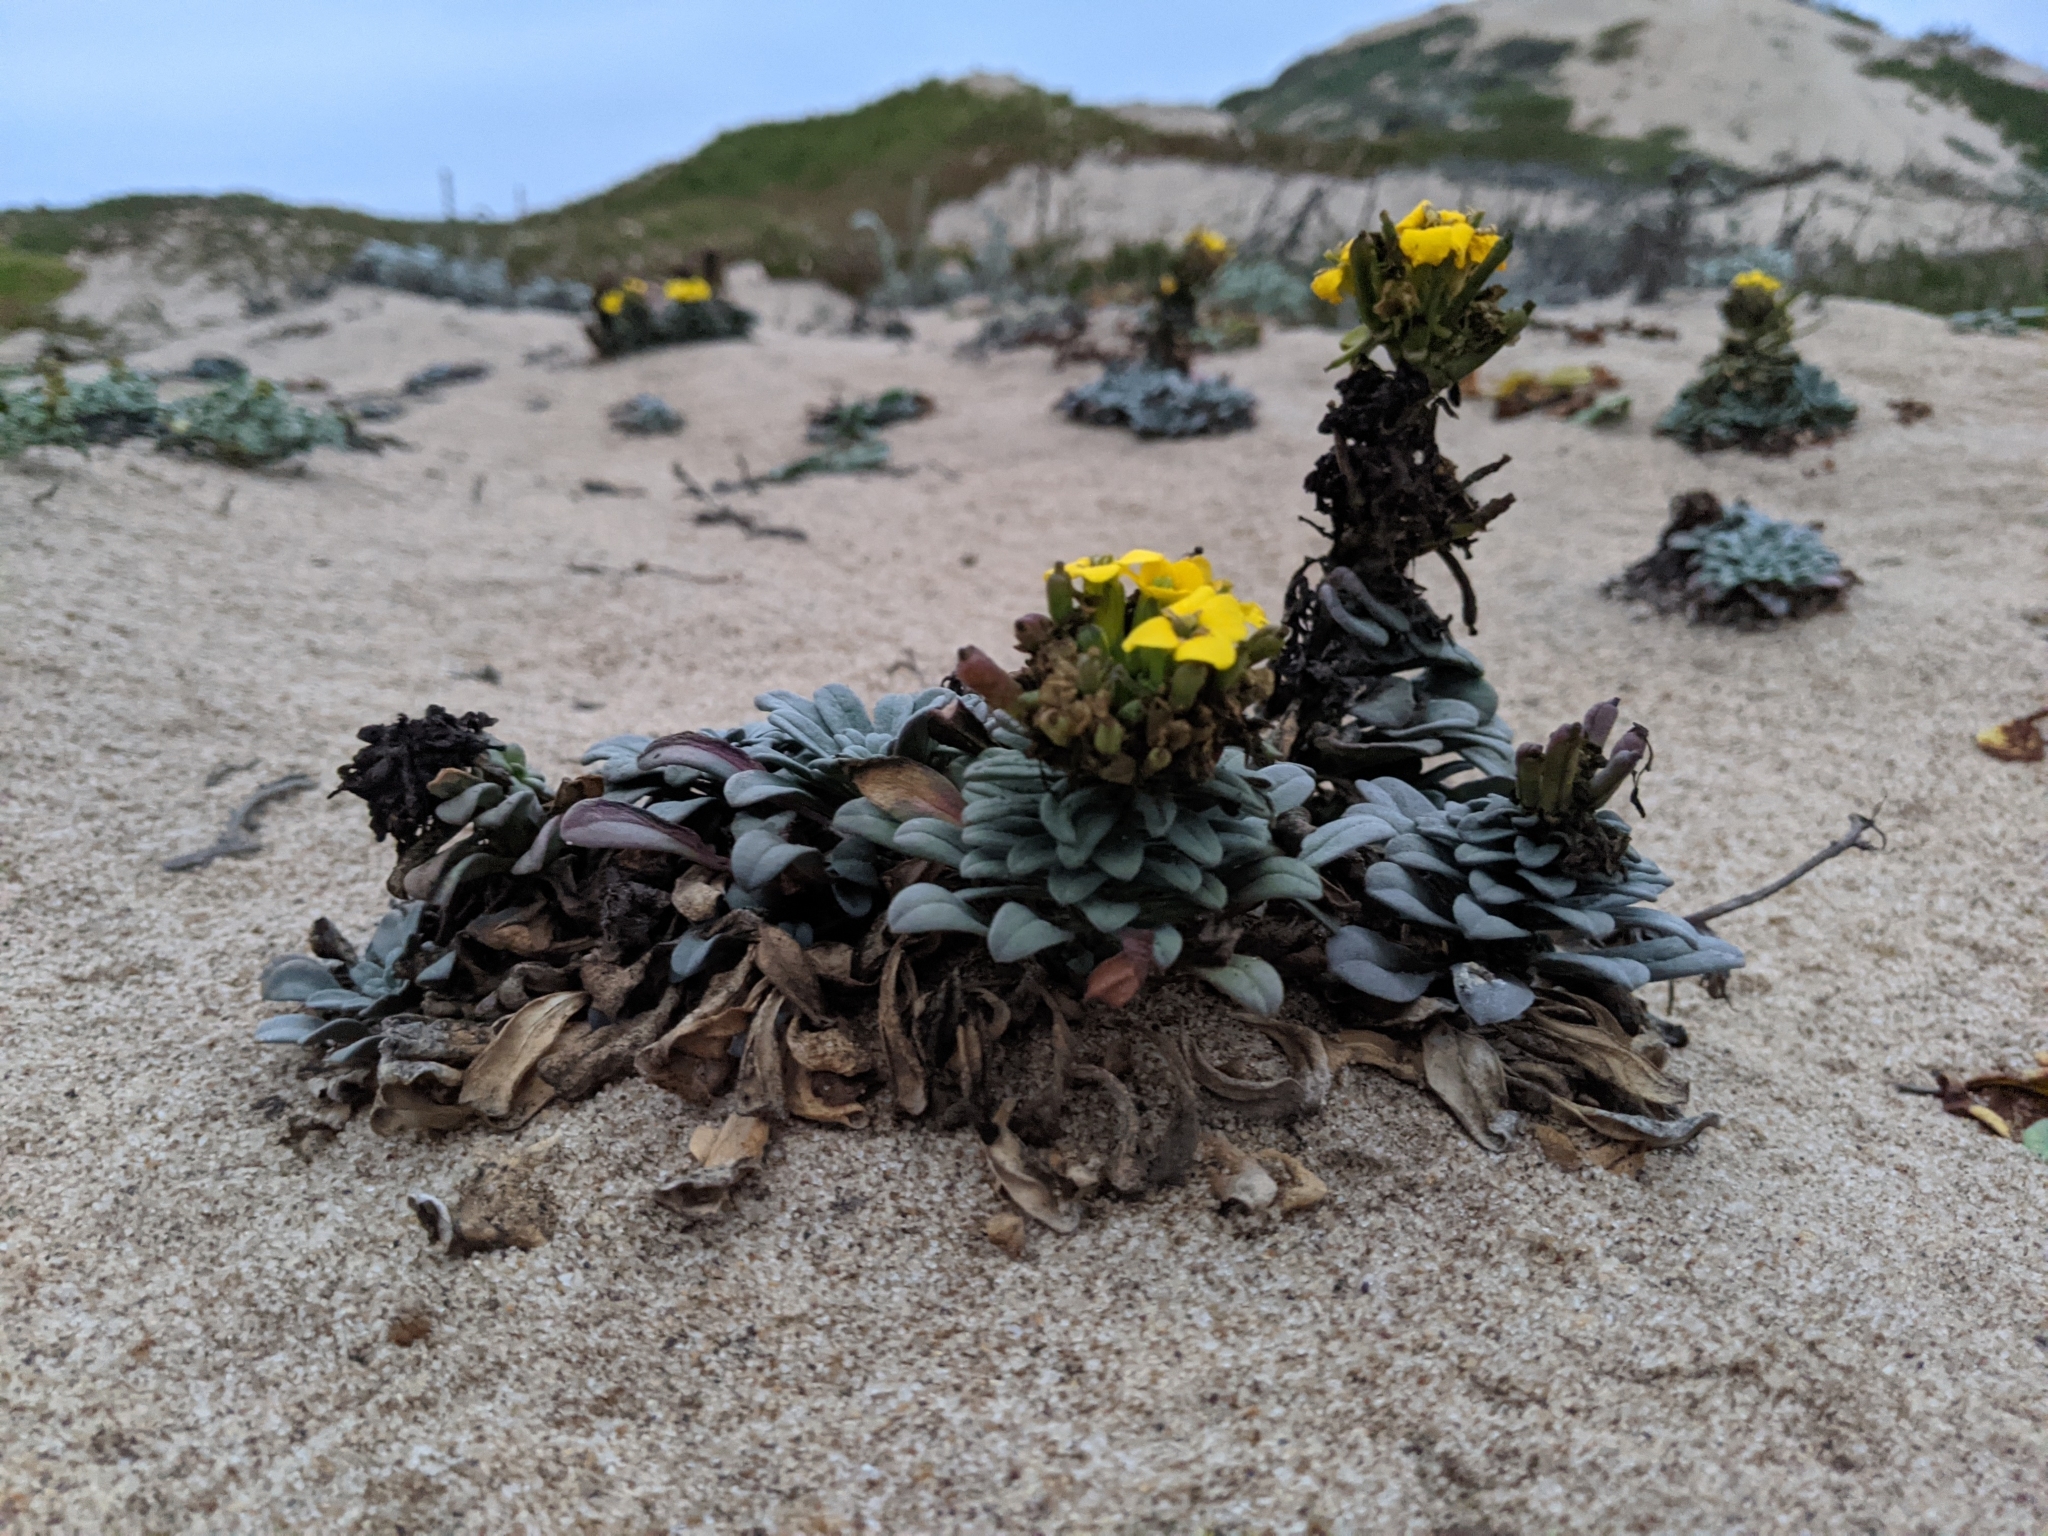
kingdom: Plantae
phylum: Tracheophyta
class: Magnoliopsida
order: Brassicales
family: Brassicaceae
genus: Erysimum
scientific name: Erysimum menziesii
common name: Menzies's wallflower
